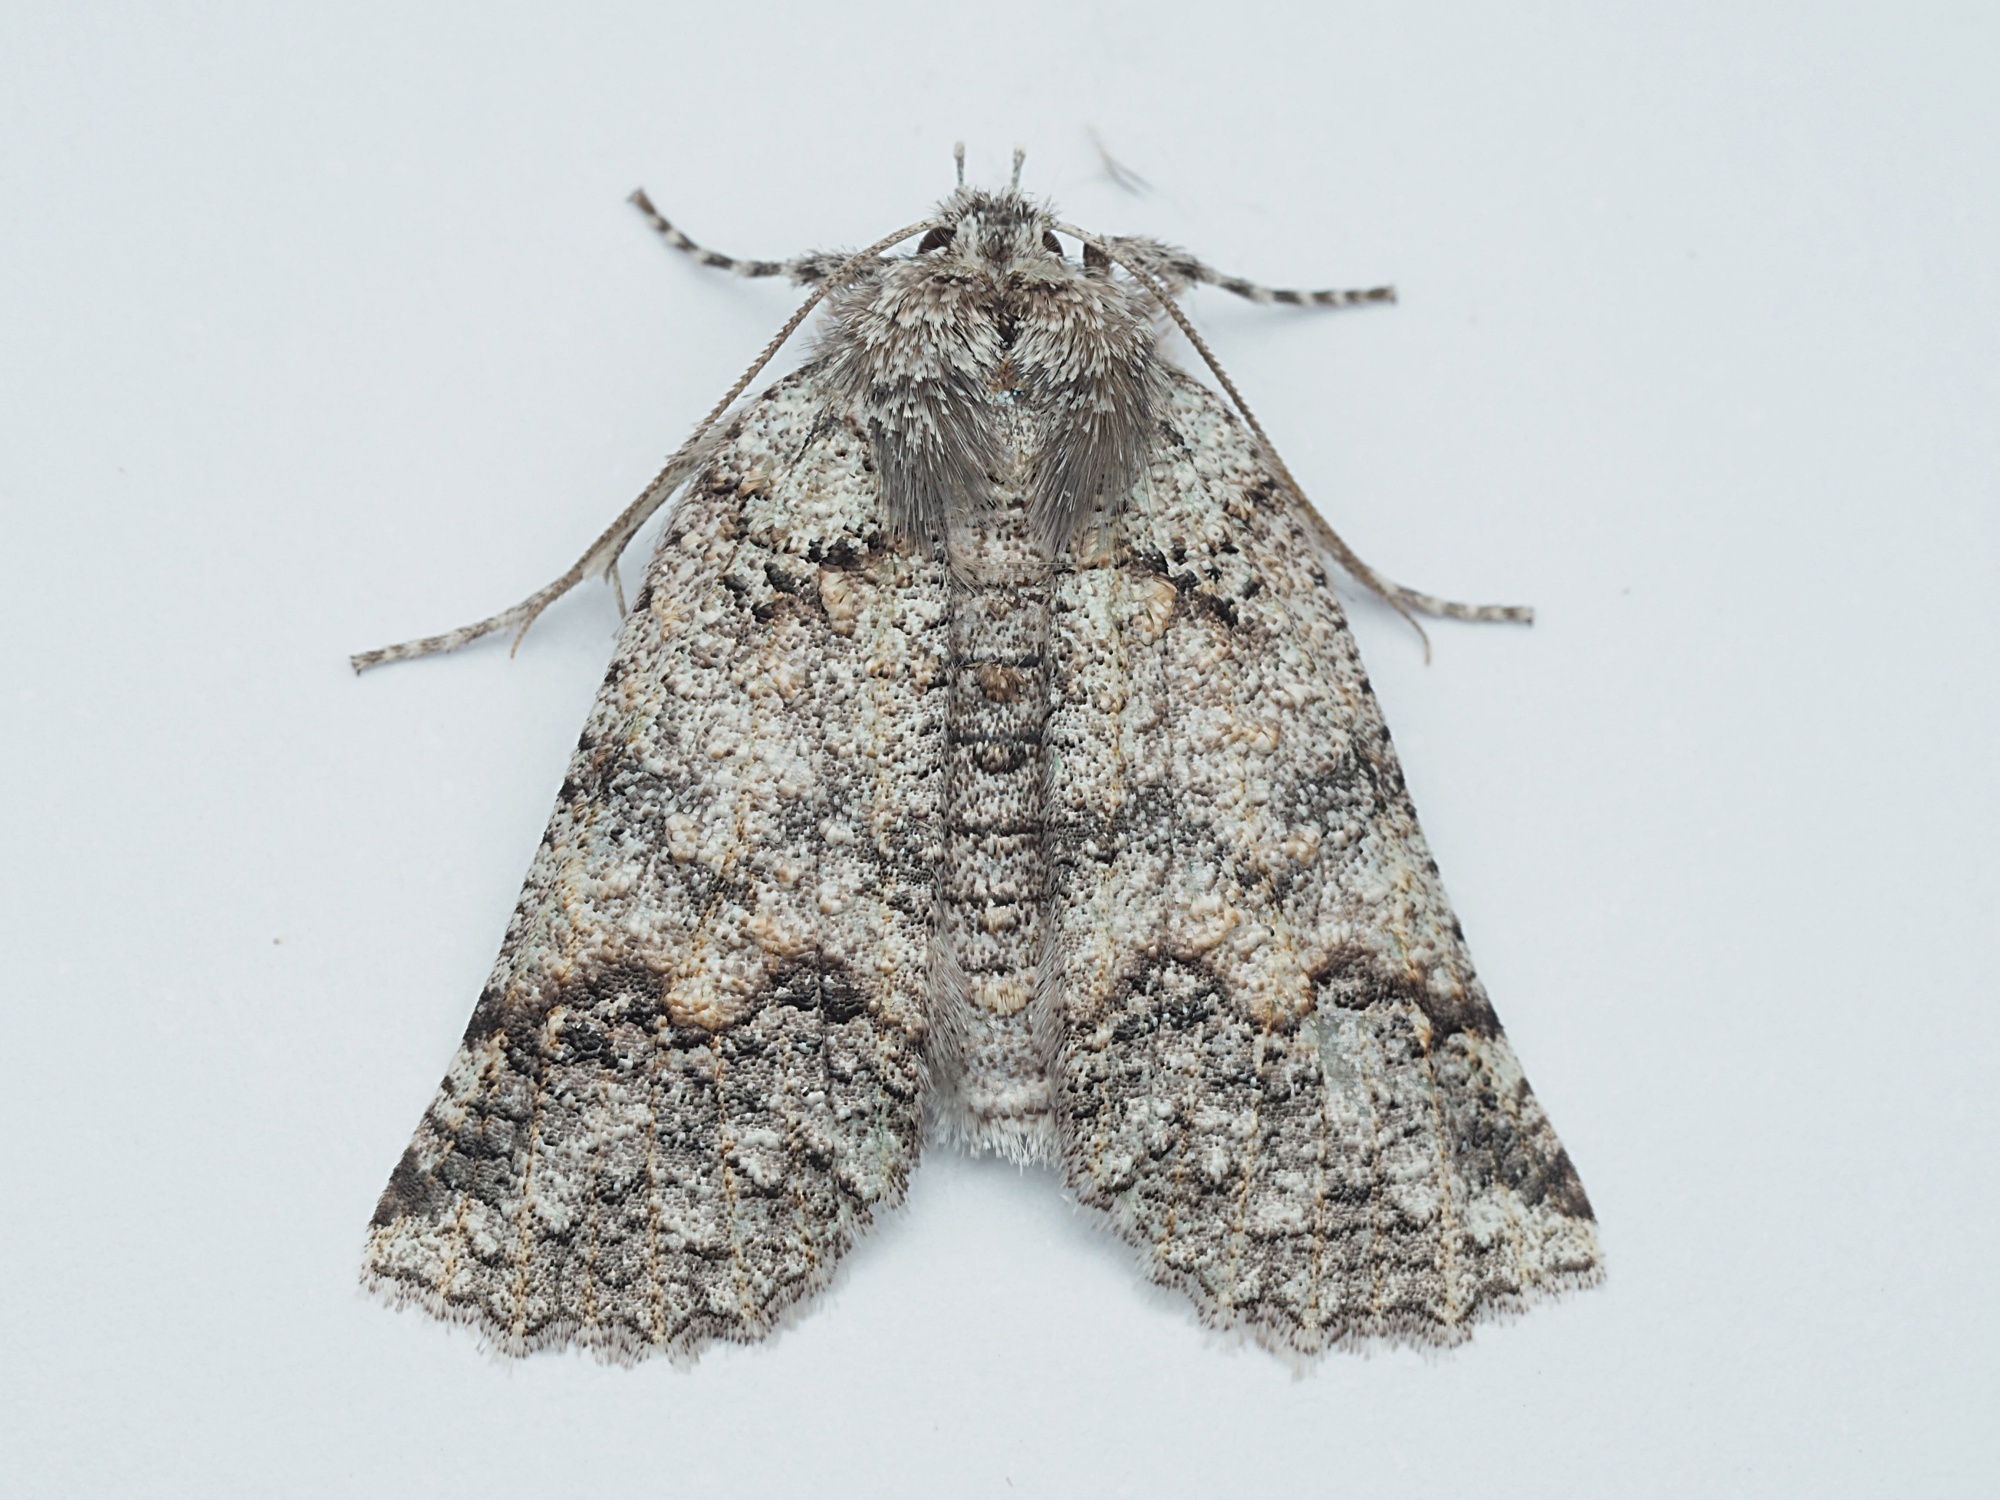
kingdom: Animalia
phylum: Arthropoda
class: Insecta
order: Lepidoptera
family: Geometridae
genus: Declana
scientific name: Declana floccosa
